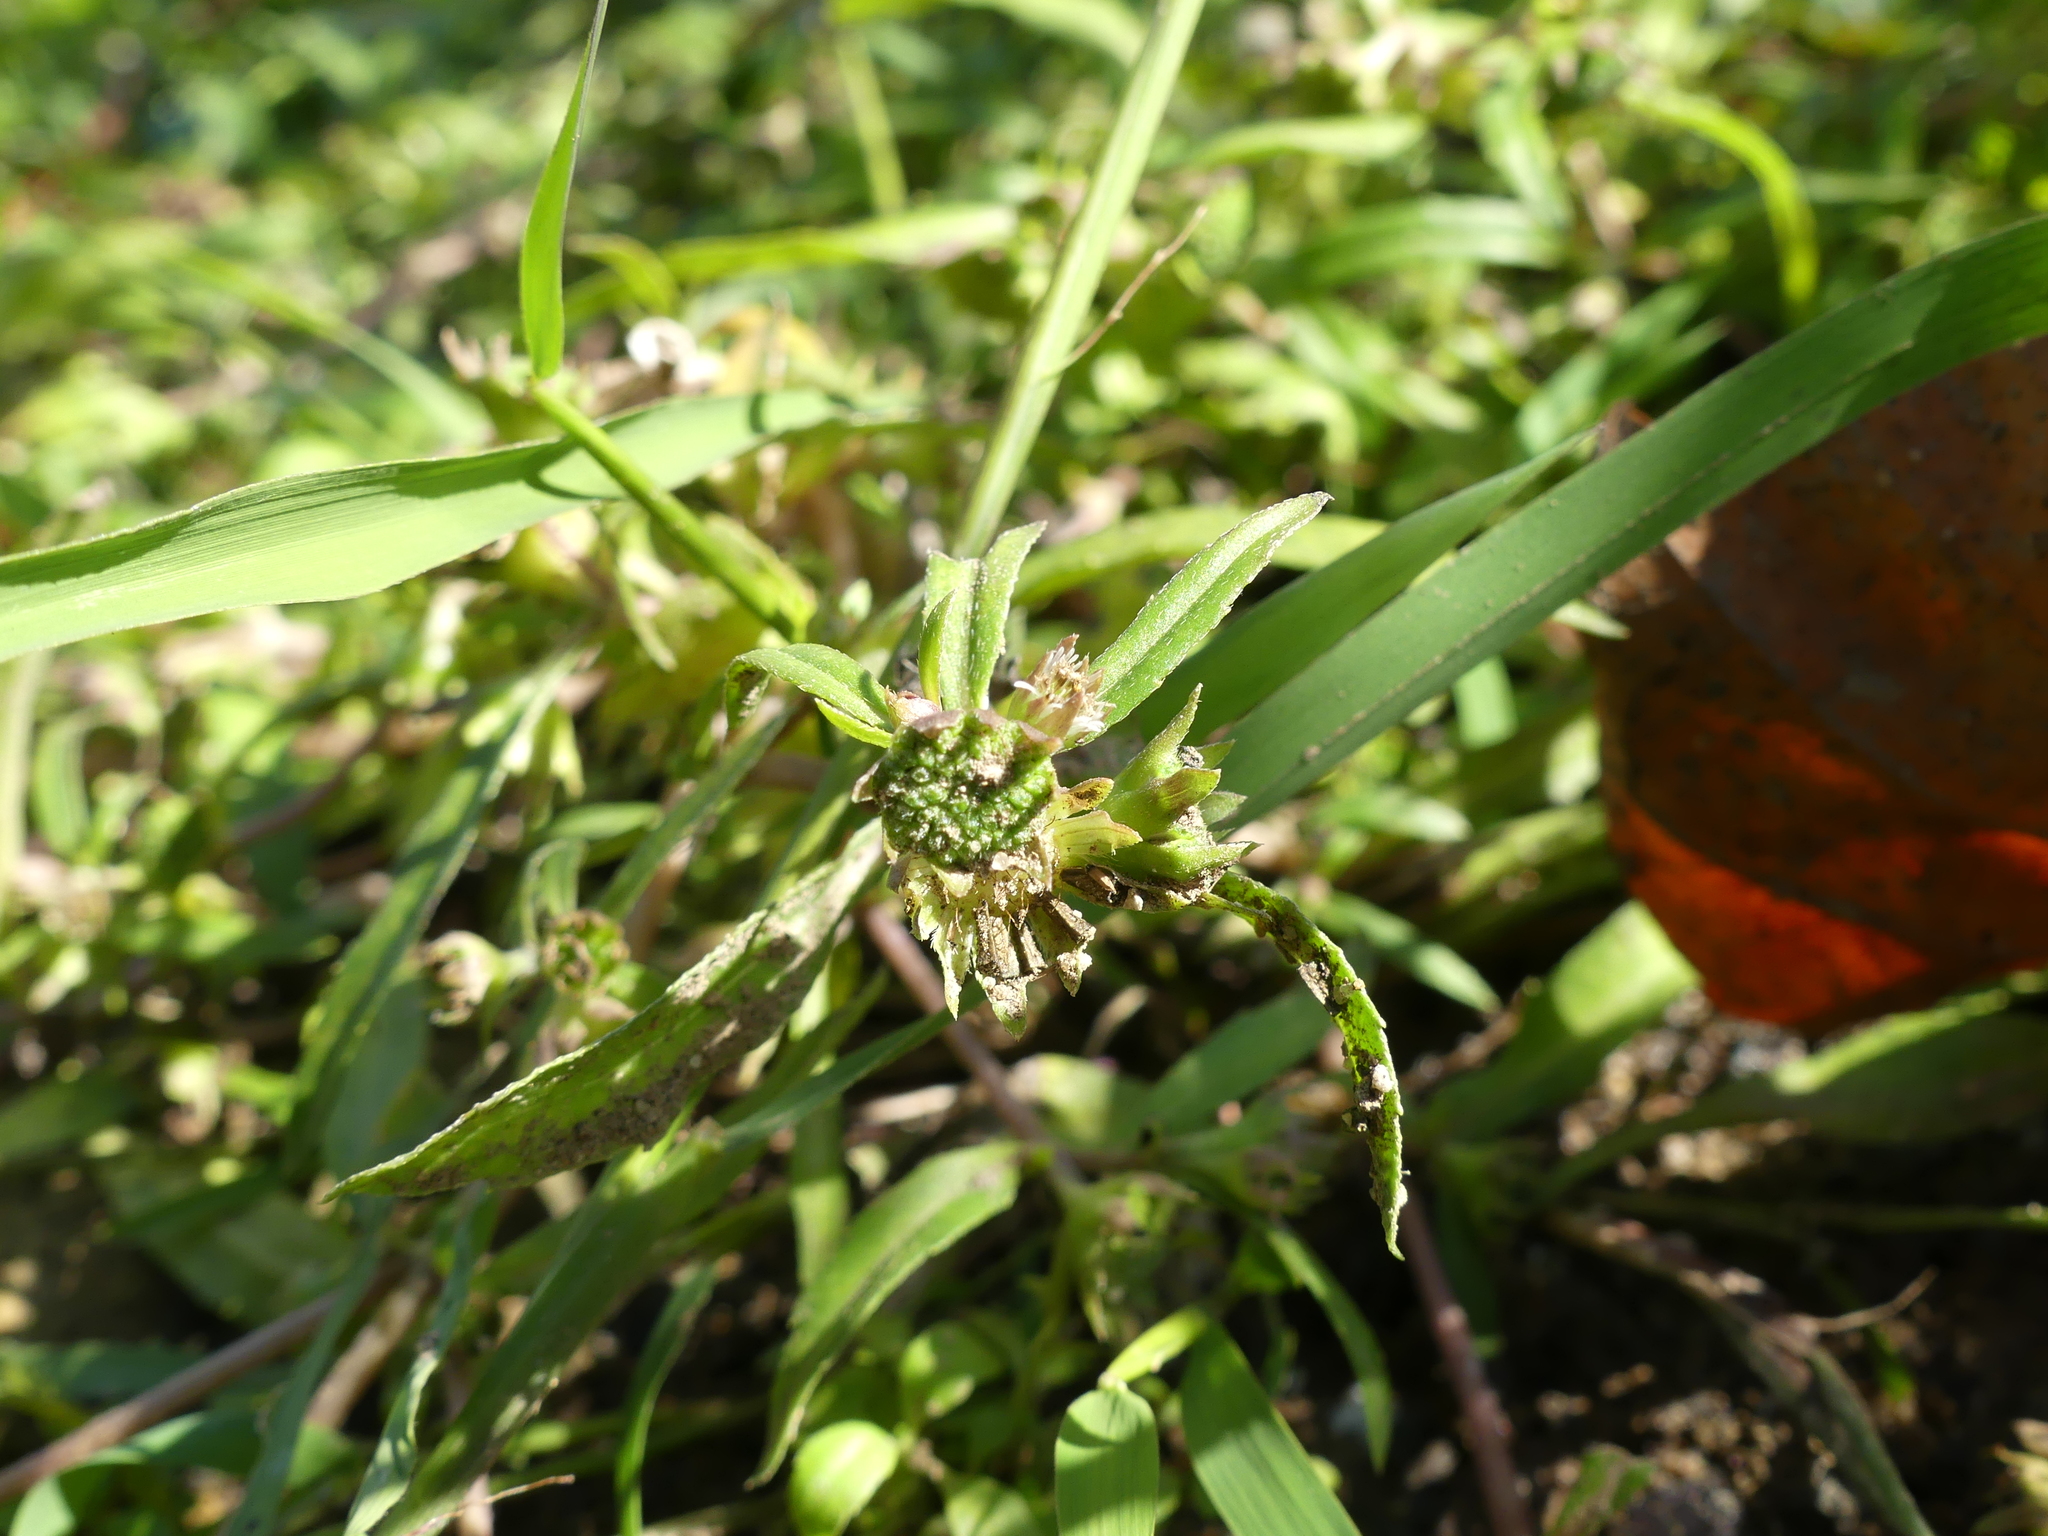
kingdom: Plantae
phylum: Tracheophyta
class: Magnoliopsida
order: Asterales
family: Asteraceae
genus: Eclipta
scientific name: Eclipta prostrata
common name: False daisy
